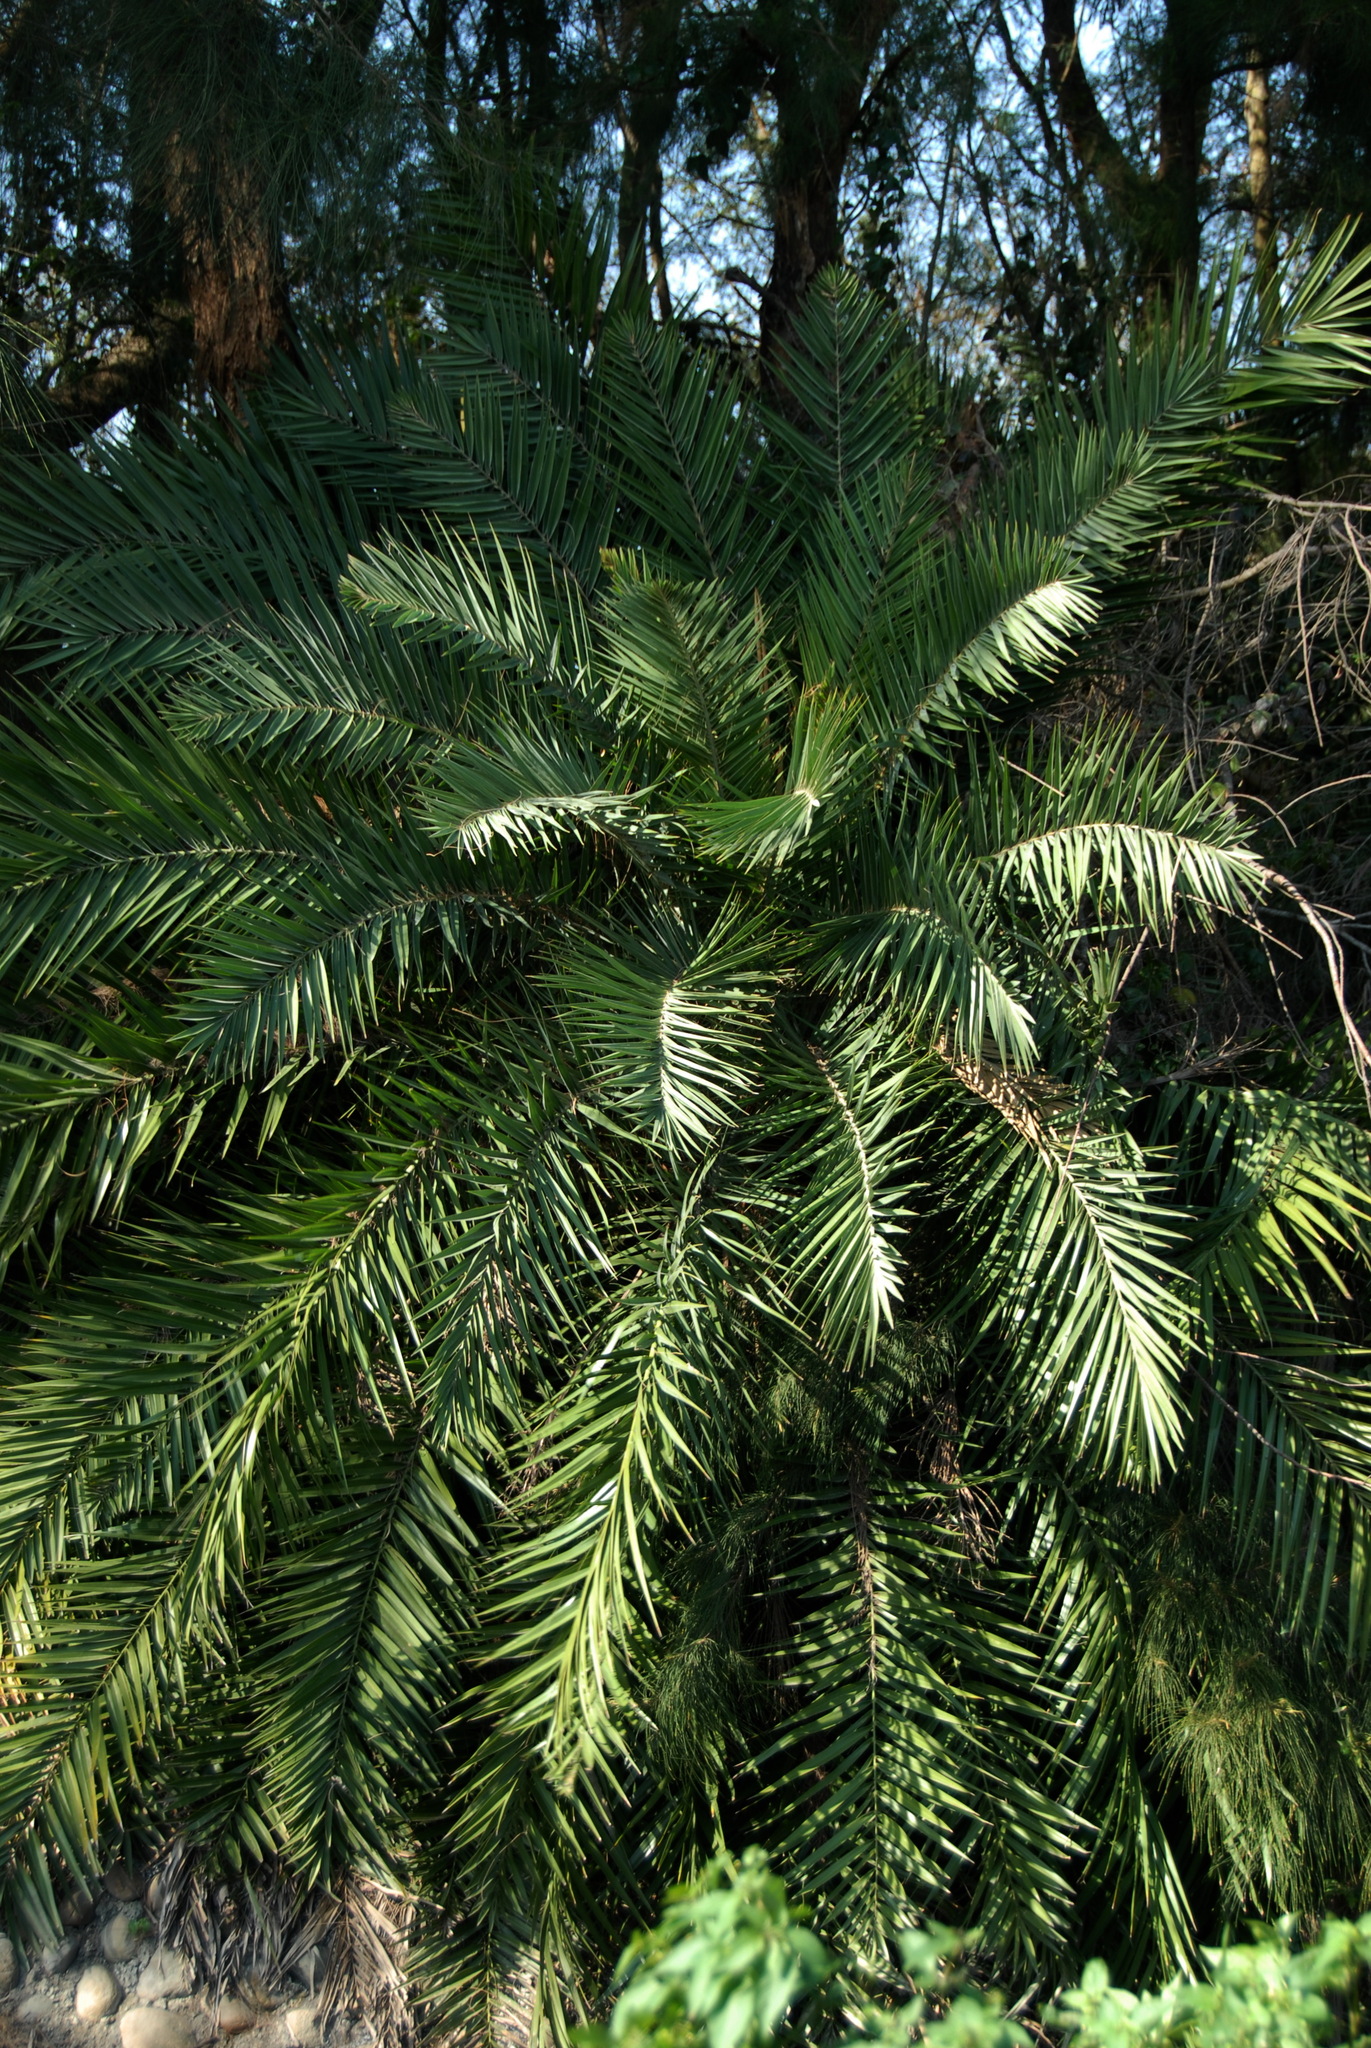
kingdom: Plantae
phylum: Tracheophyta
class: Liliopsida
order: Arecales
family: Arecaceae
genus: Phoenix
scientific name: Phoenix loureiroi
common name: Loureiro's palm
